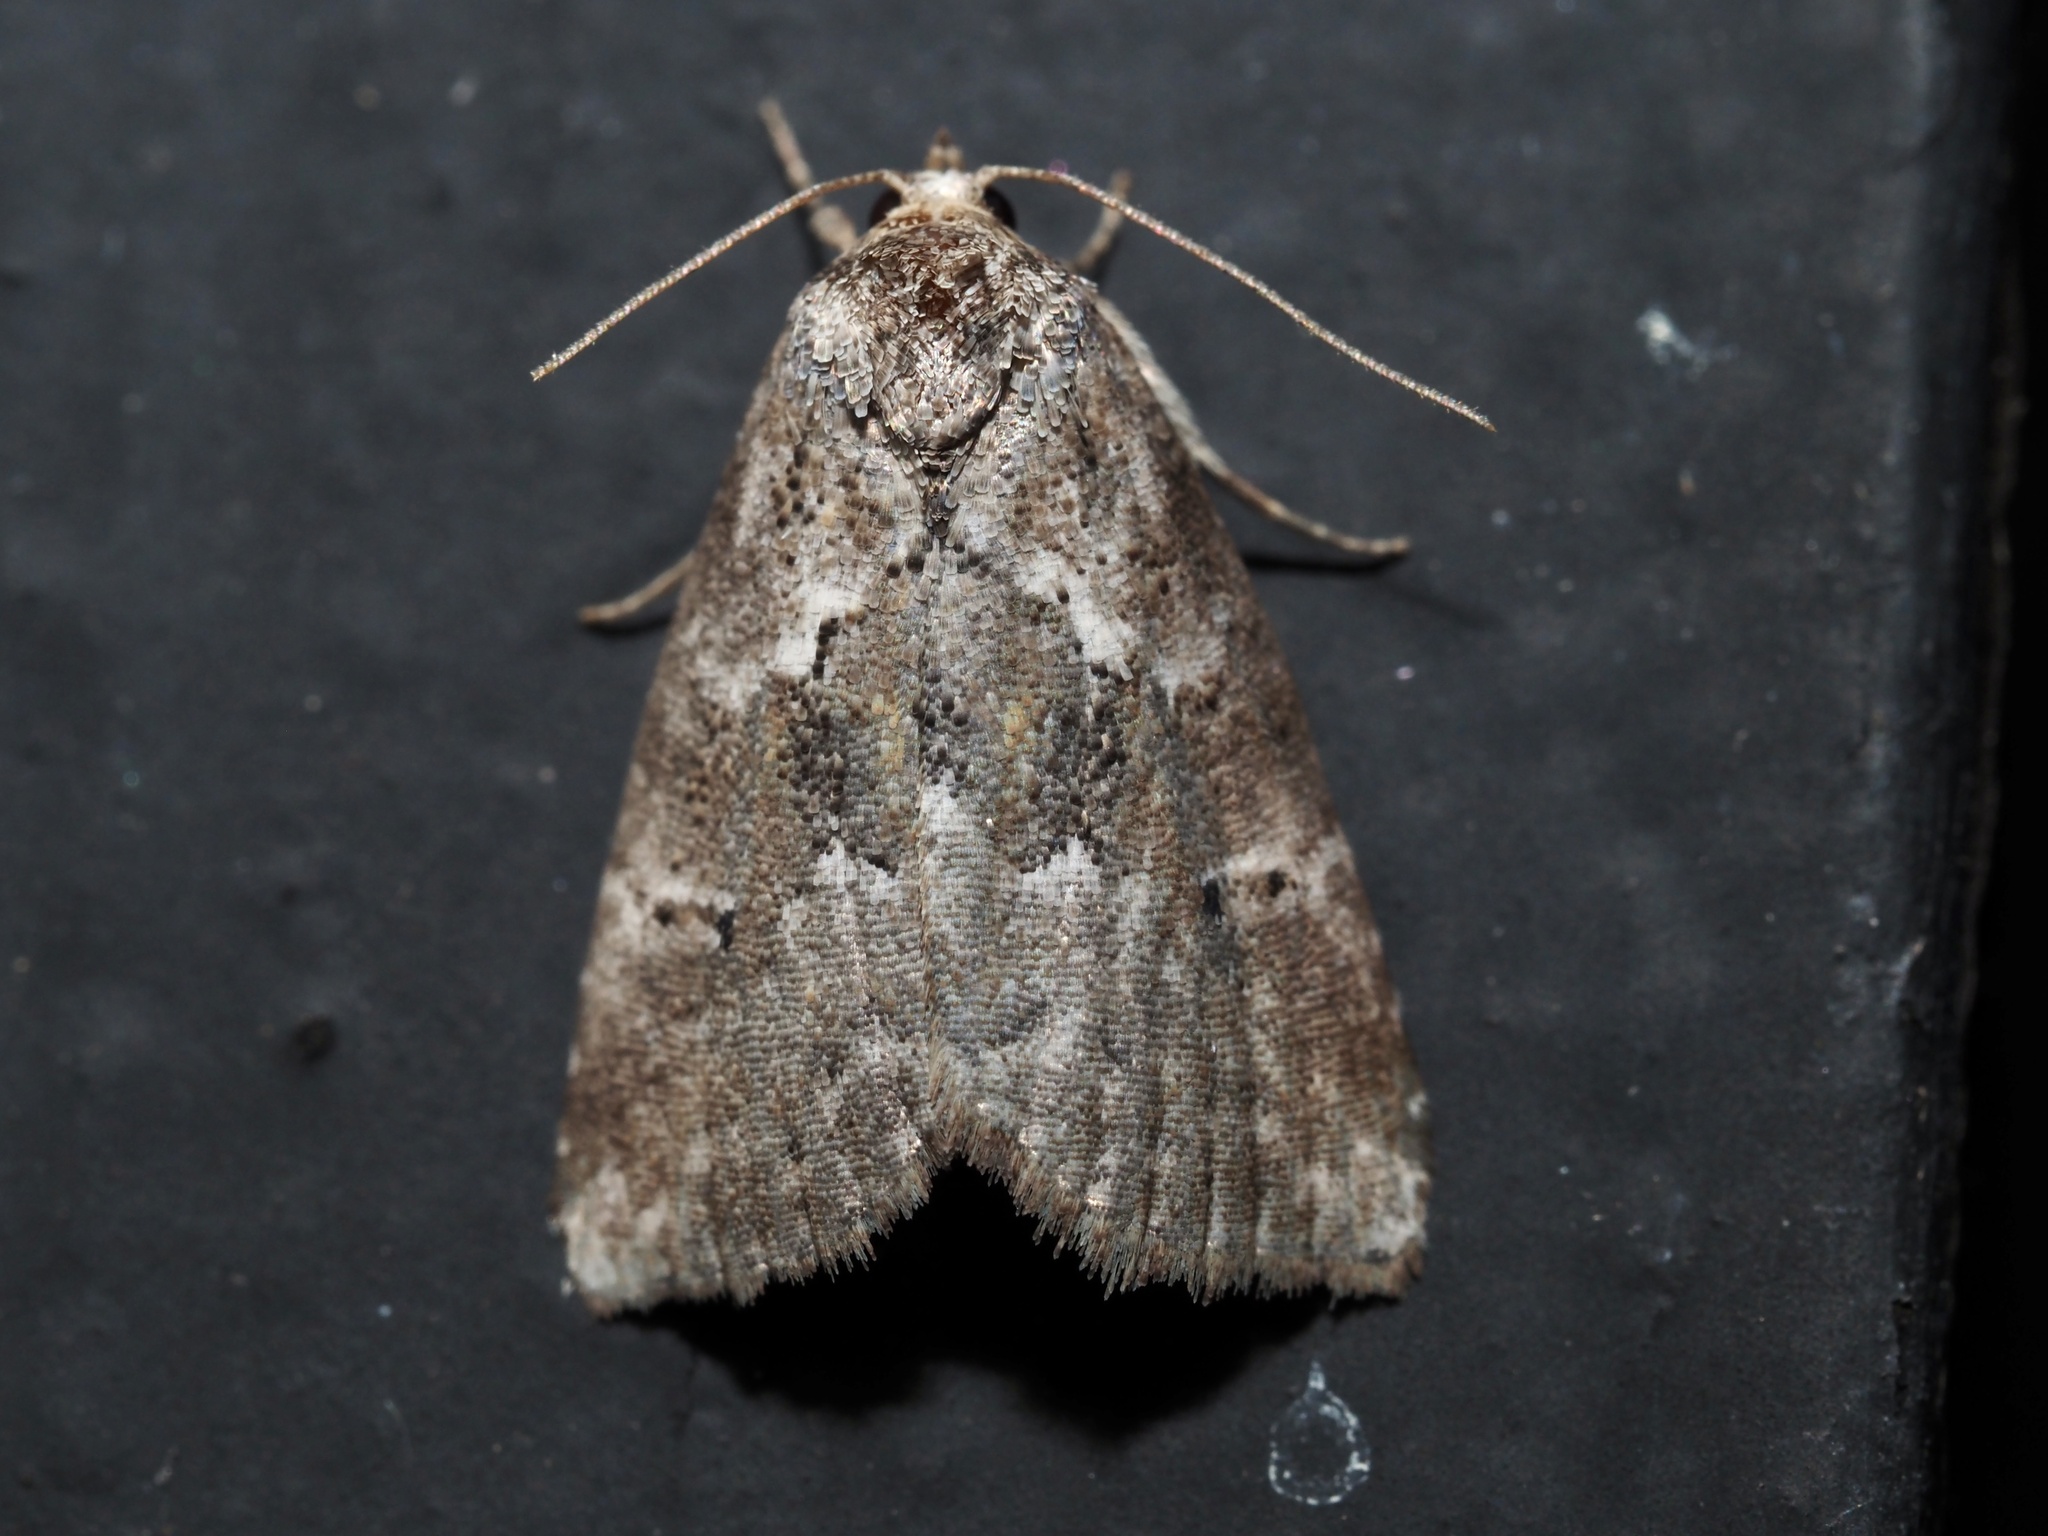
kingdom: Animalia
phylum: Arthropoda
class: Insecta
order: Lepidoptera
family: Erebidae
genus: Hyperstrotia
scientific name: Hyperstrotia nana
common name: White-lined graylet
